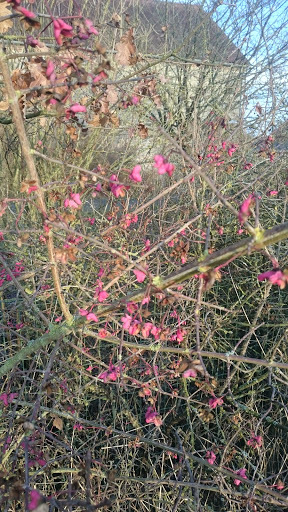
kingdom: Plantae
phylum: Tracheophyta
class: Magnoliopsida
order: Celastrales
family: Celastraceae
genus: Euonymus
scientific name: Euonymus europaeus
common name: Spindle
